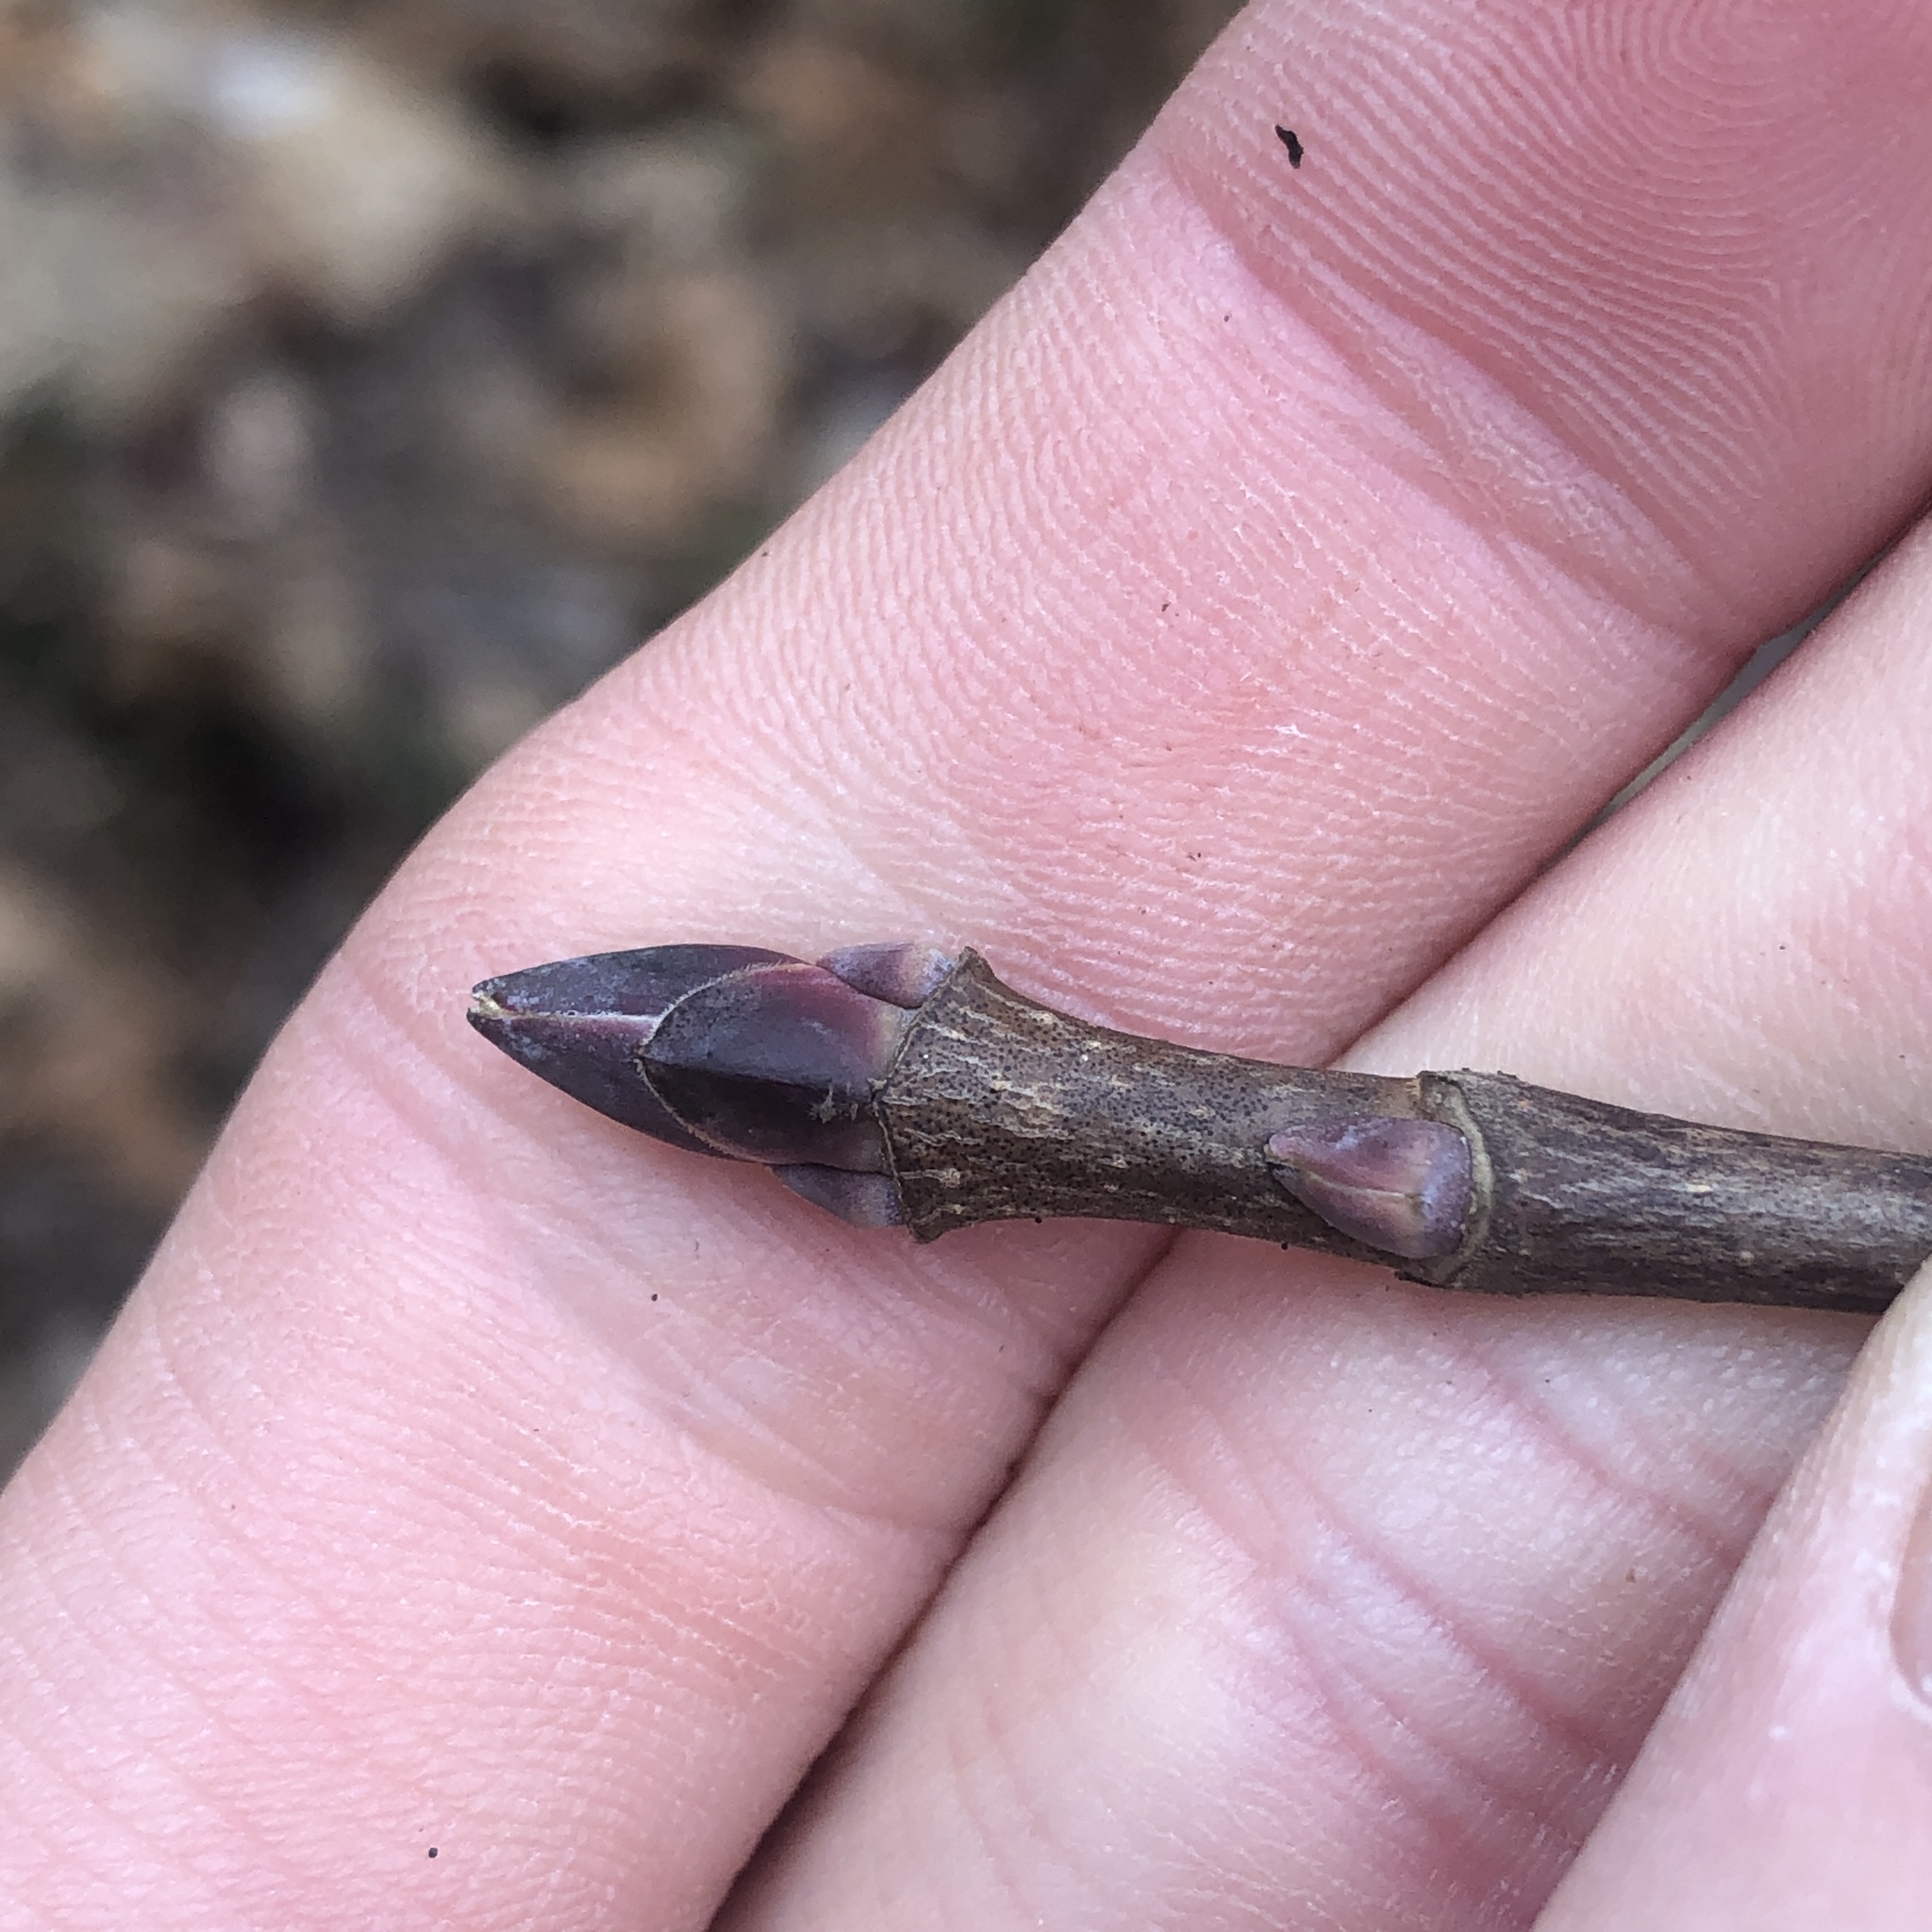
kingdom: Plantae
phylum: Tracheophyta
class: Magnoliopsida
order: Sapindales
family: Sapindaceae
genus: Acer
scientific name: Acer platanoides
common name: Norway maple
